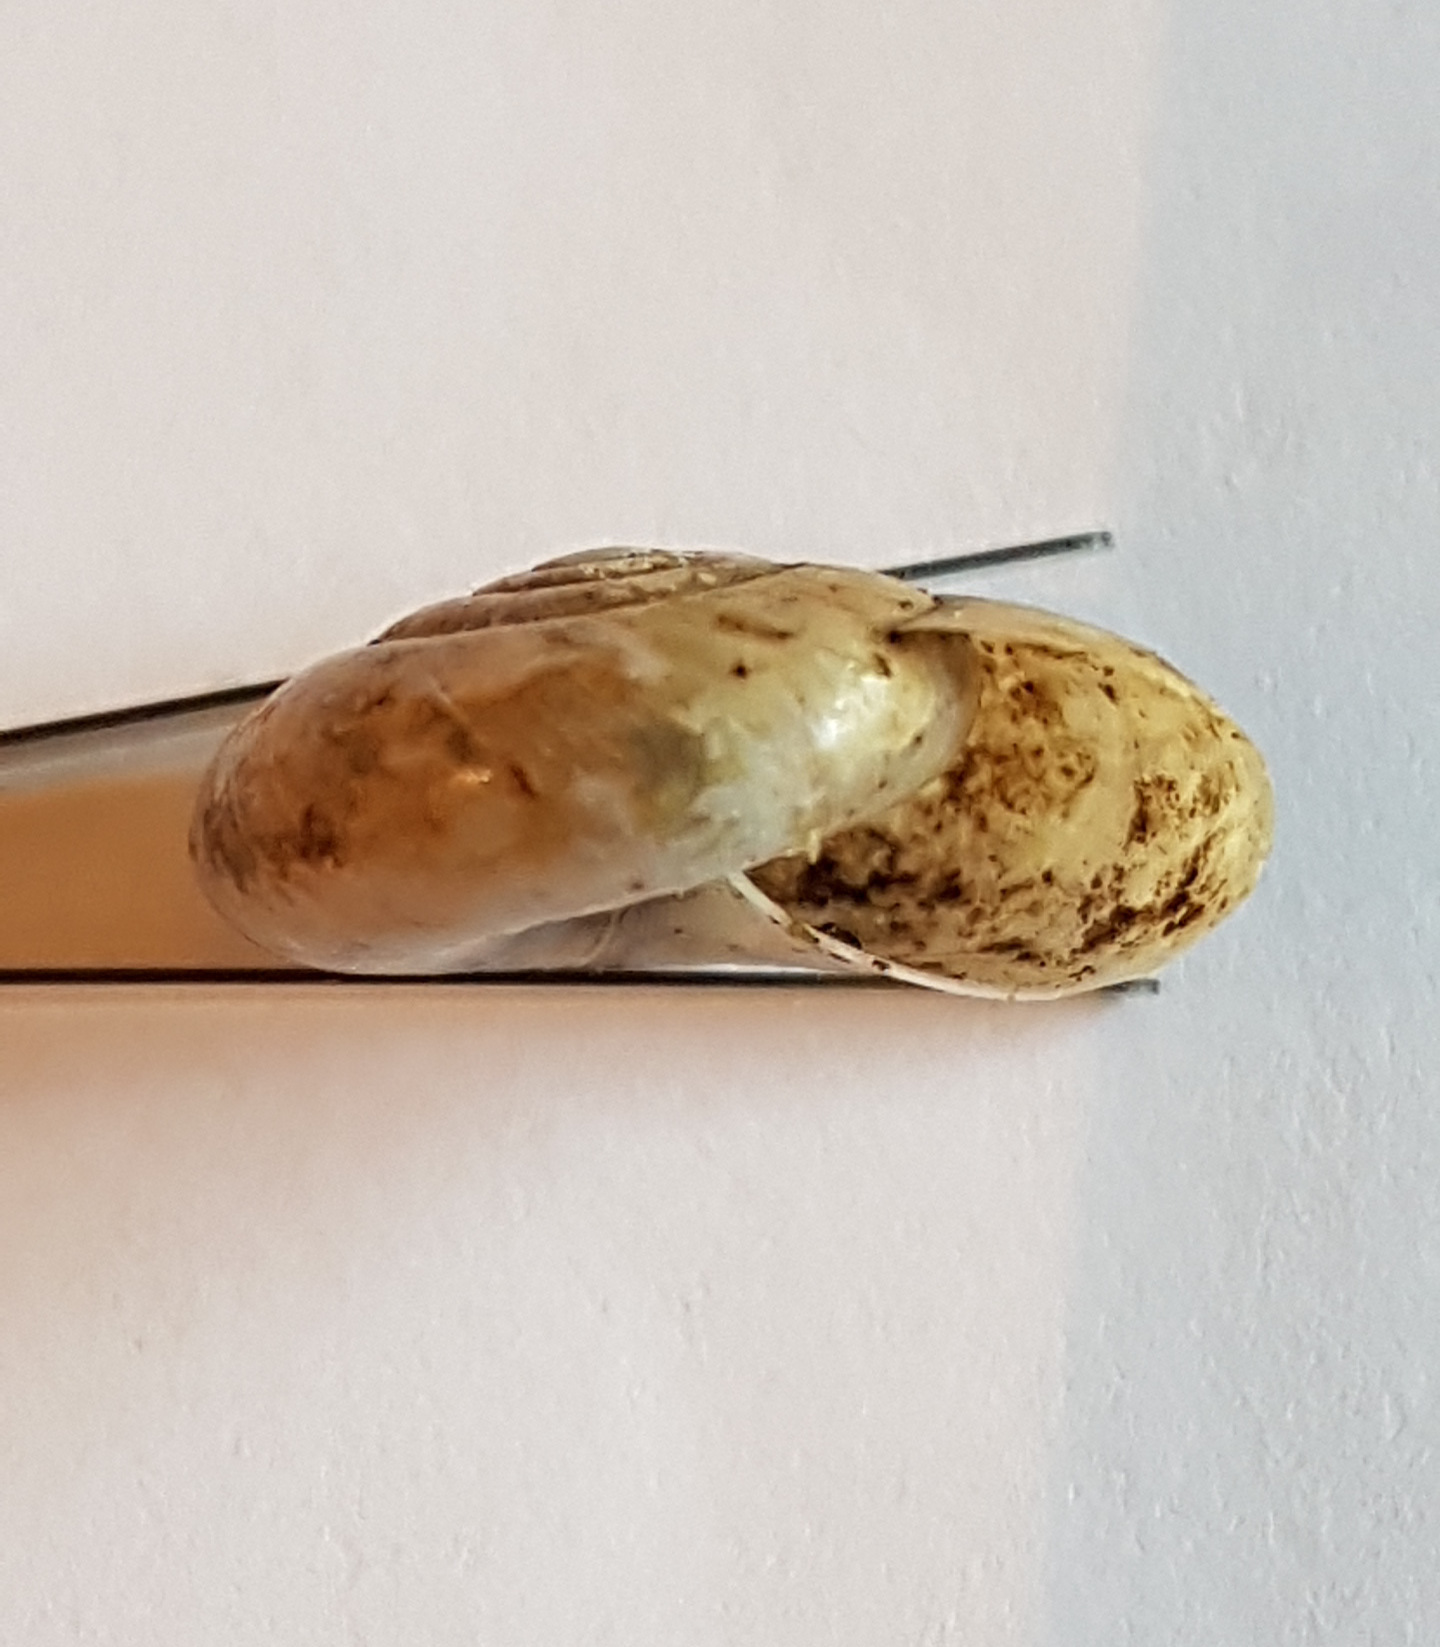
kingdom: Animalia
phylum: Mollusca
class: Gastropoda
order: Stylommatophora
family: Oxychilidae
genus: Oxychilus
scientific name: Oxychilus draparnaudi
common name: Draparnaud's glass snail
